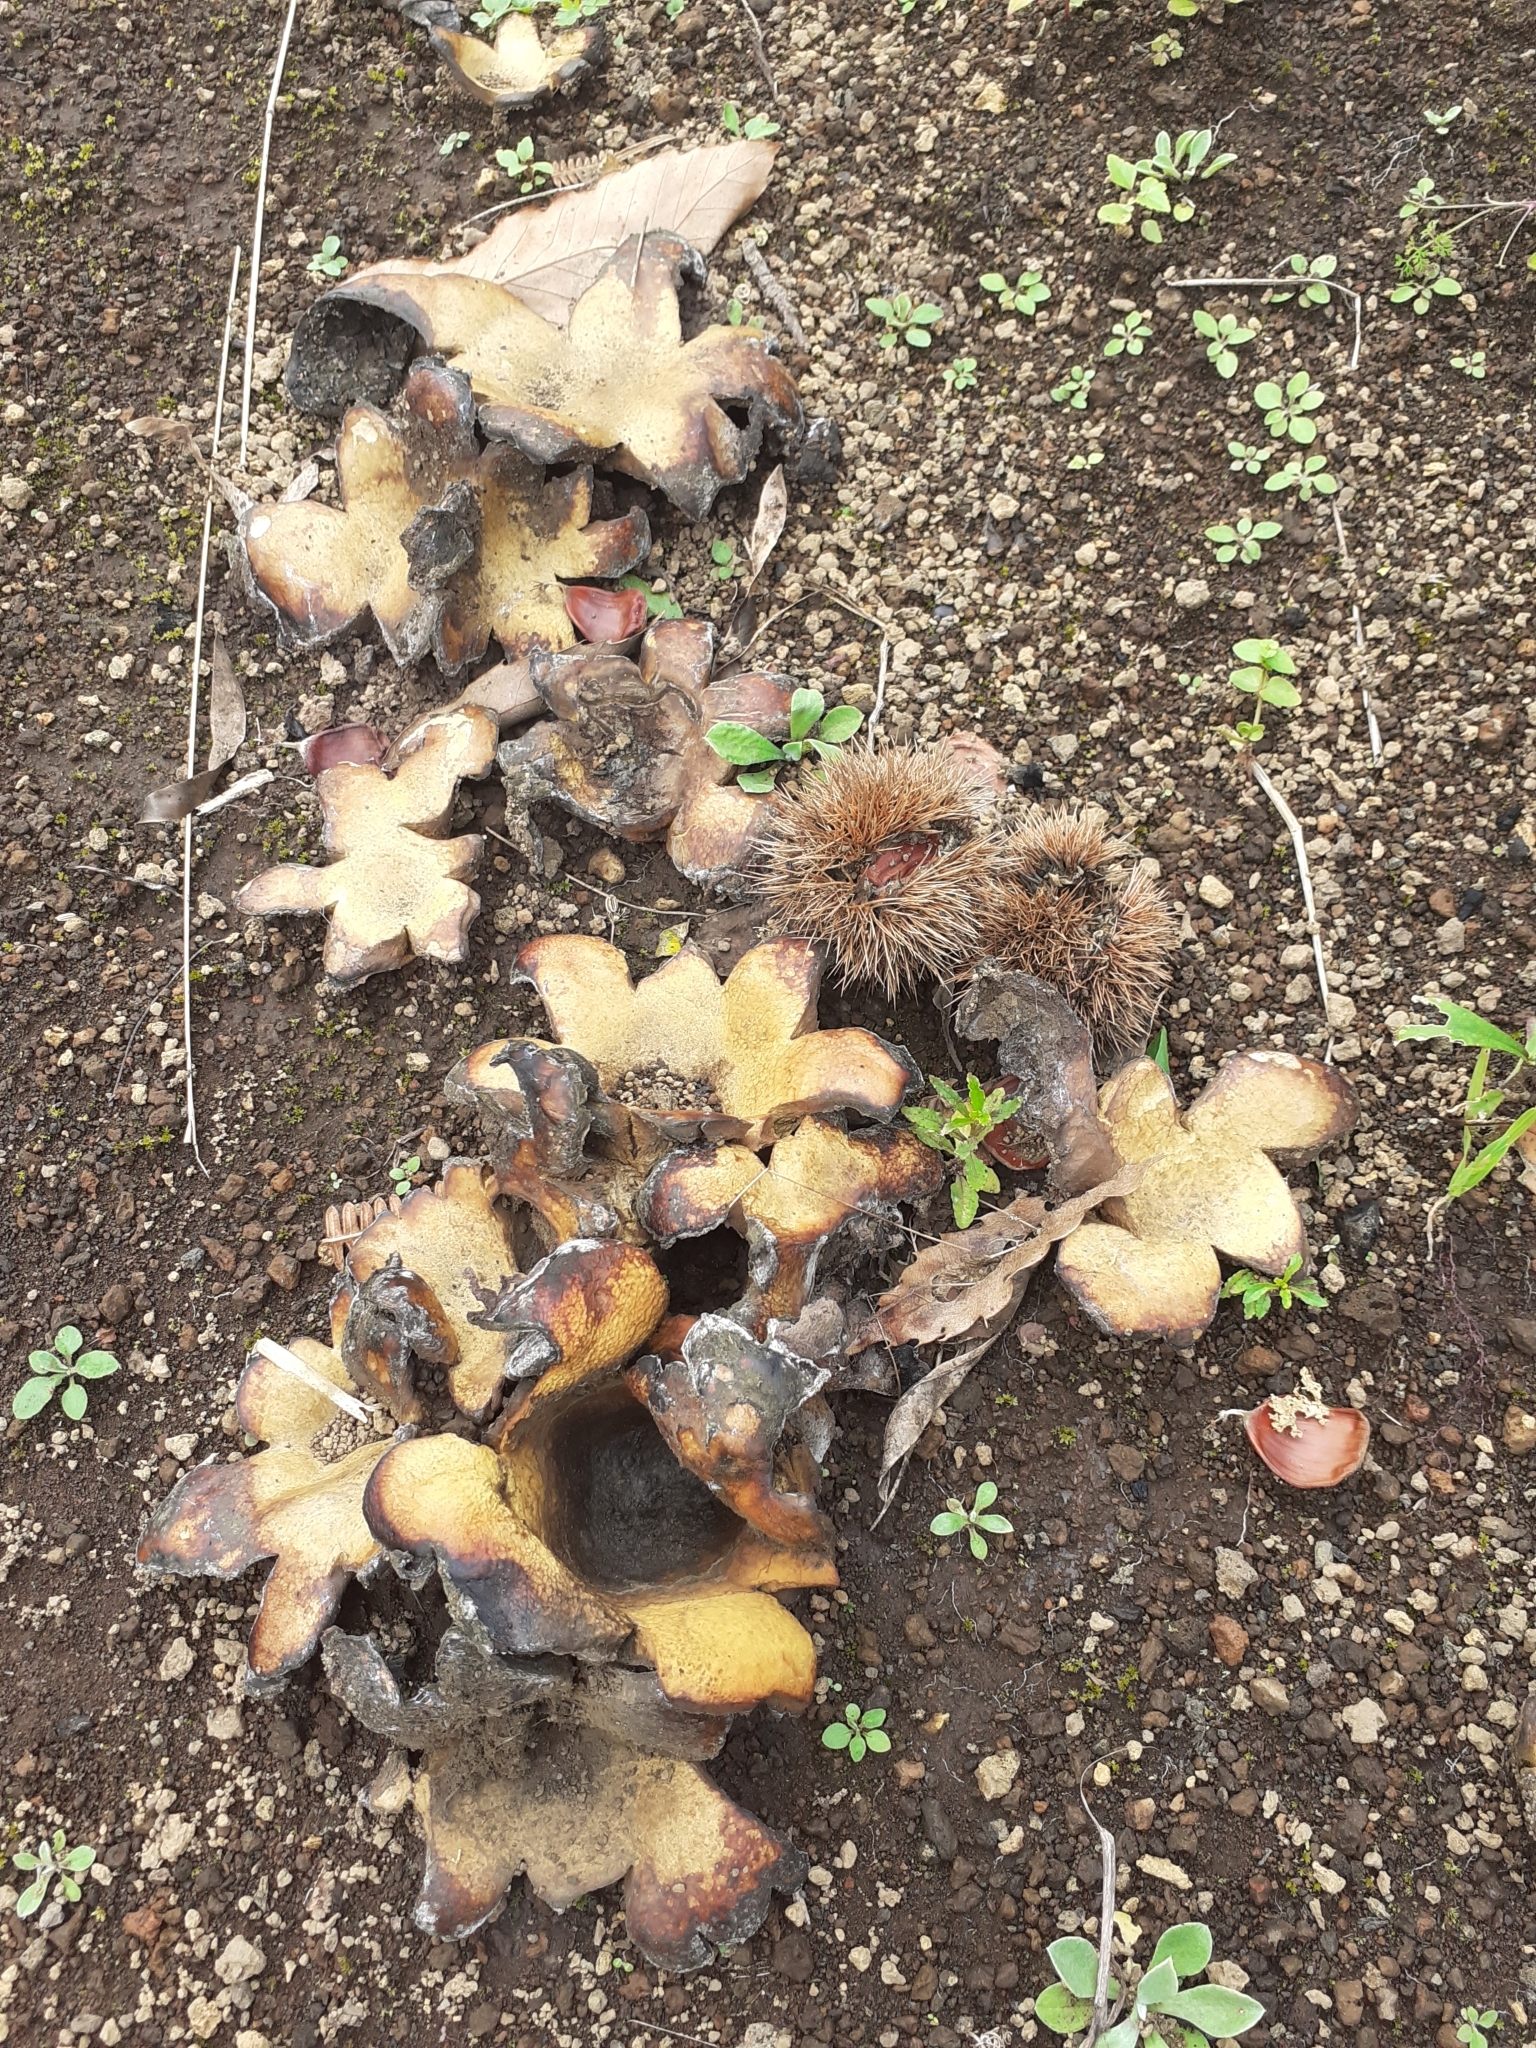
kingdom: Fungi
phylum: Basidiomycota
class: Agaricomycetes
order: Boletales
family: Sclerodermataceae
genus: Scleroderma
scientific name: Scleroderma polyrhizum
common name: Many-rooted earthball
